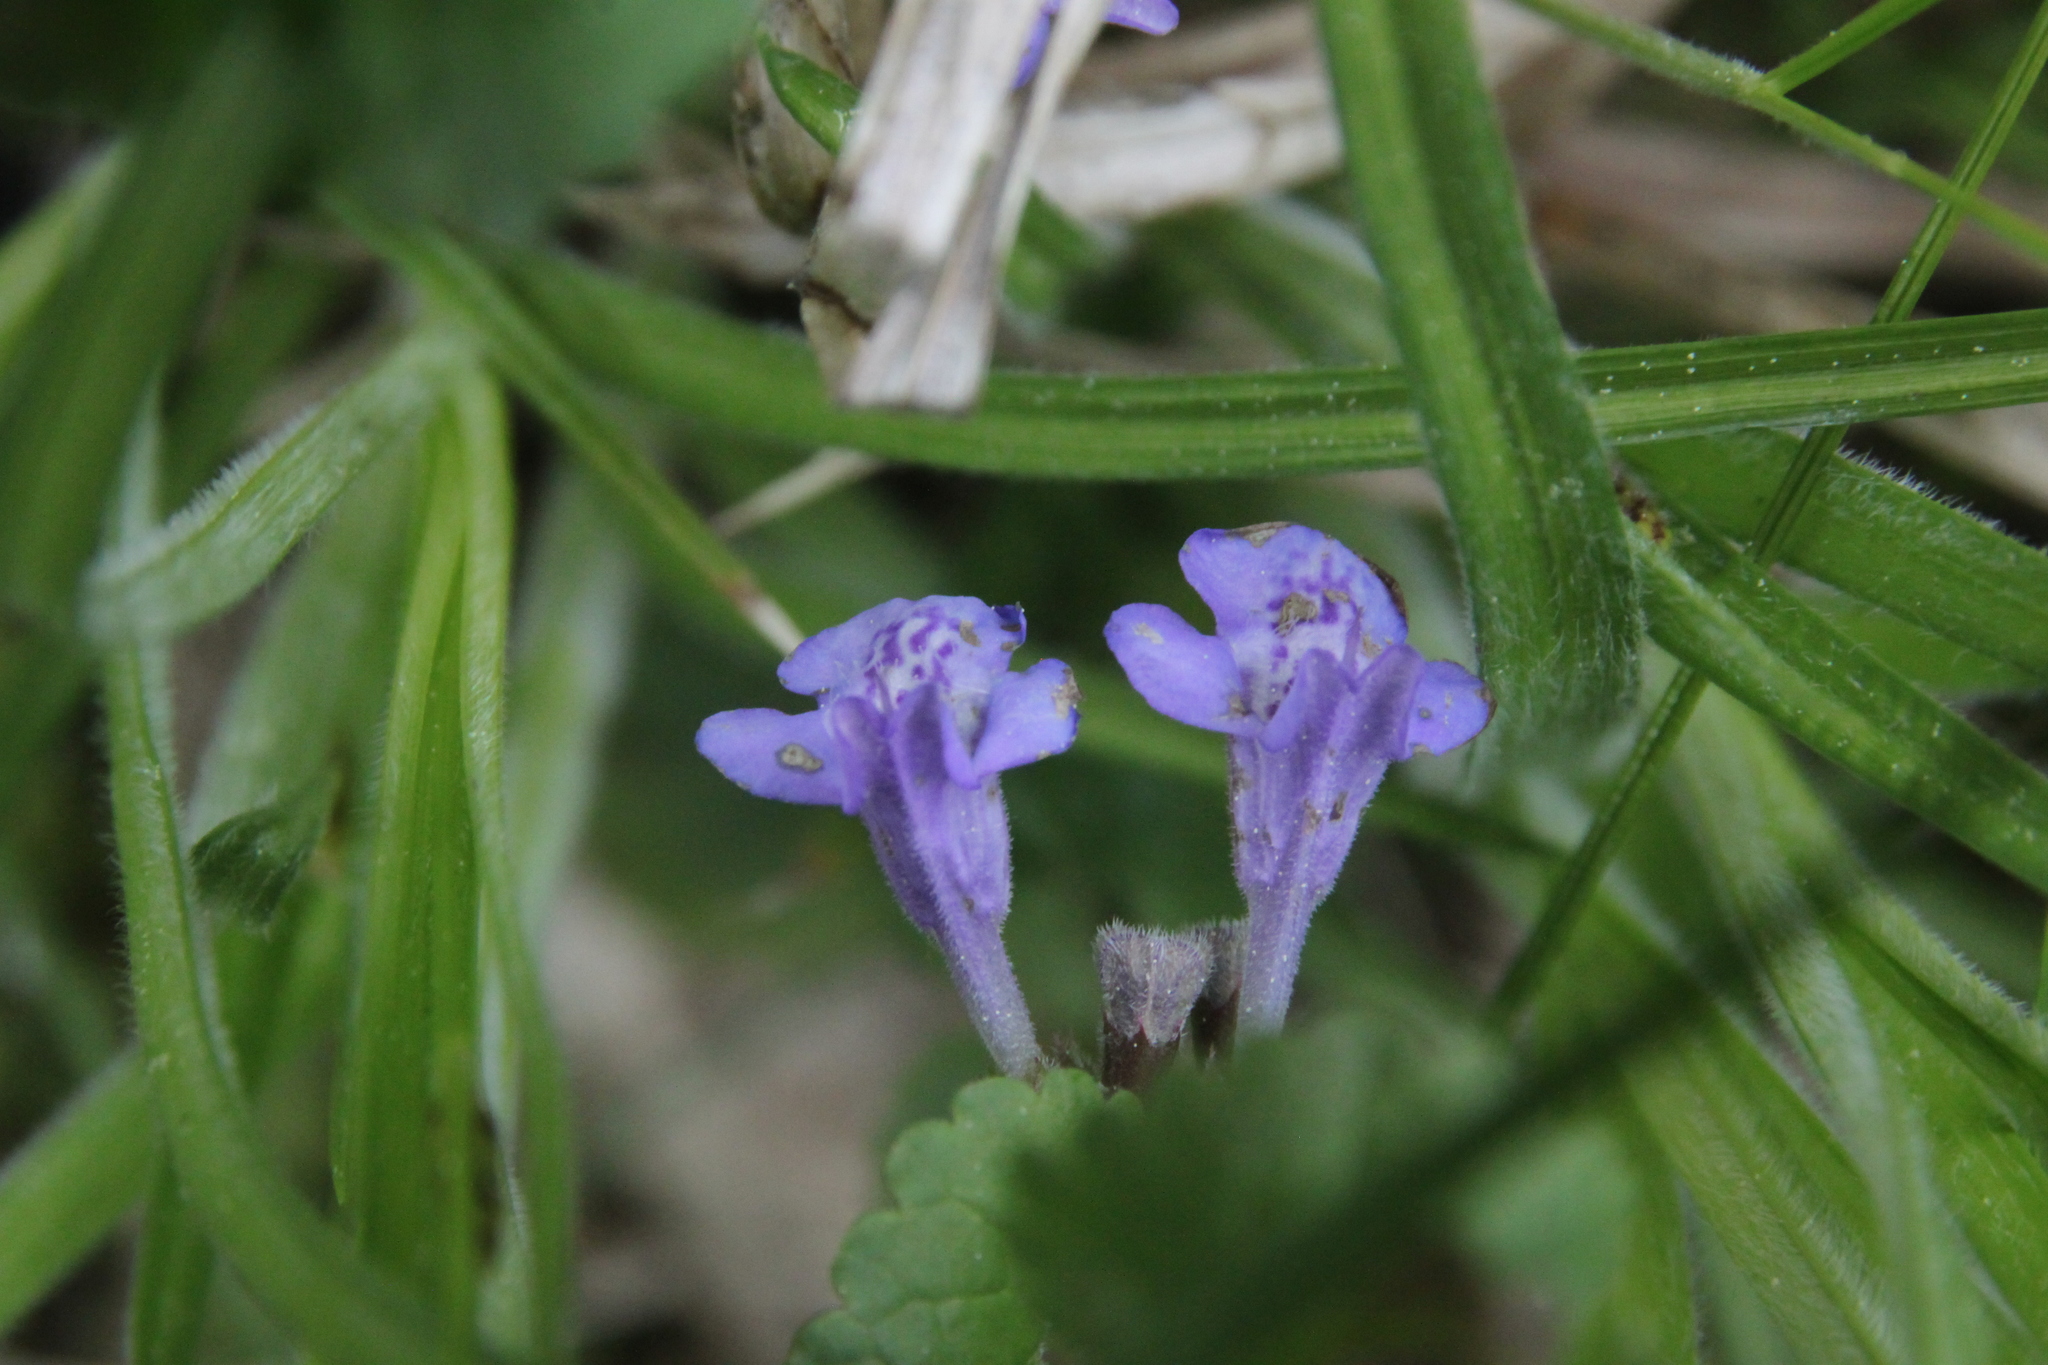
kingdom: Plantae
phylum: Tracheophyta
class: Magnoliopsida
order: Lamiales
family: Lamiaceae
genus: Glechoma
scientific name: Glechoma hederacea
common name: Ground ivy
